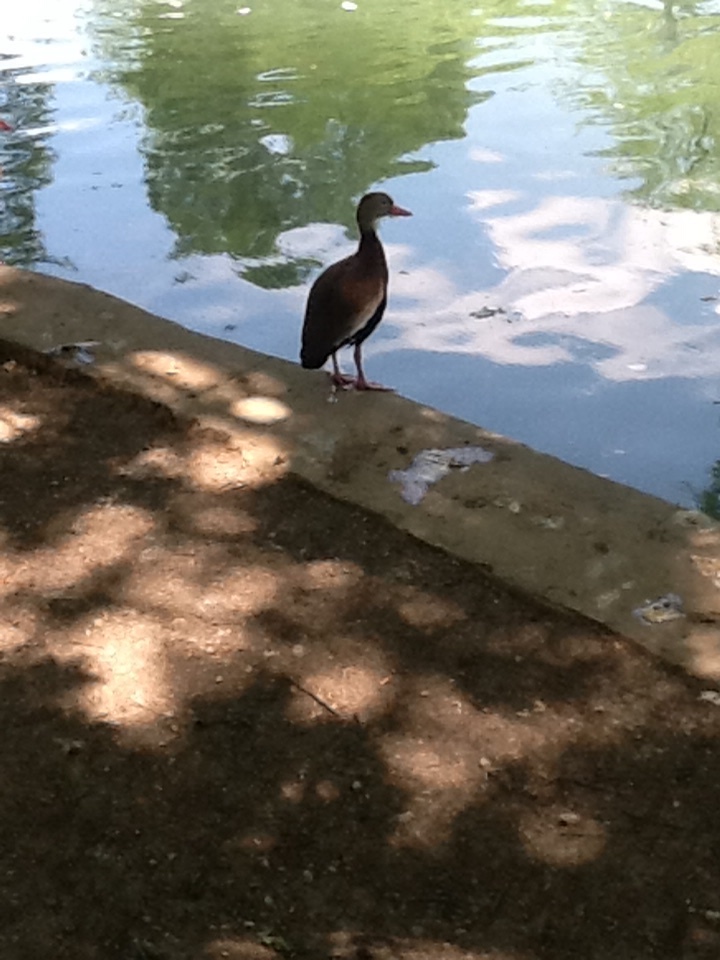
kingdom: Animalia
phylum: Chordata
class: Aves
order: Anseriformes
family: Anatidae
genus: Dendrocygna
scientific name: Dendrocygna autumnalis
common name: Black-bellied whistling duck
